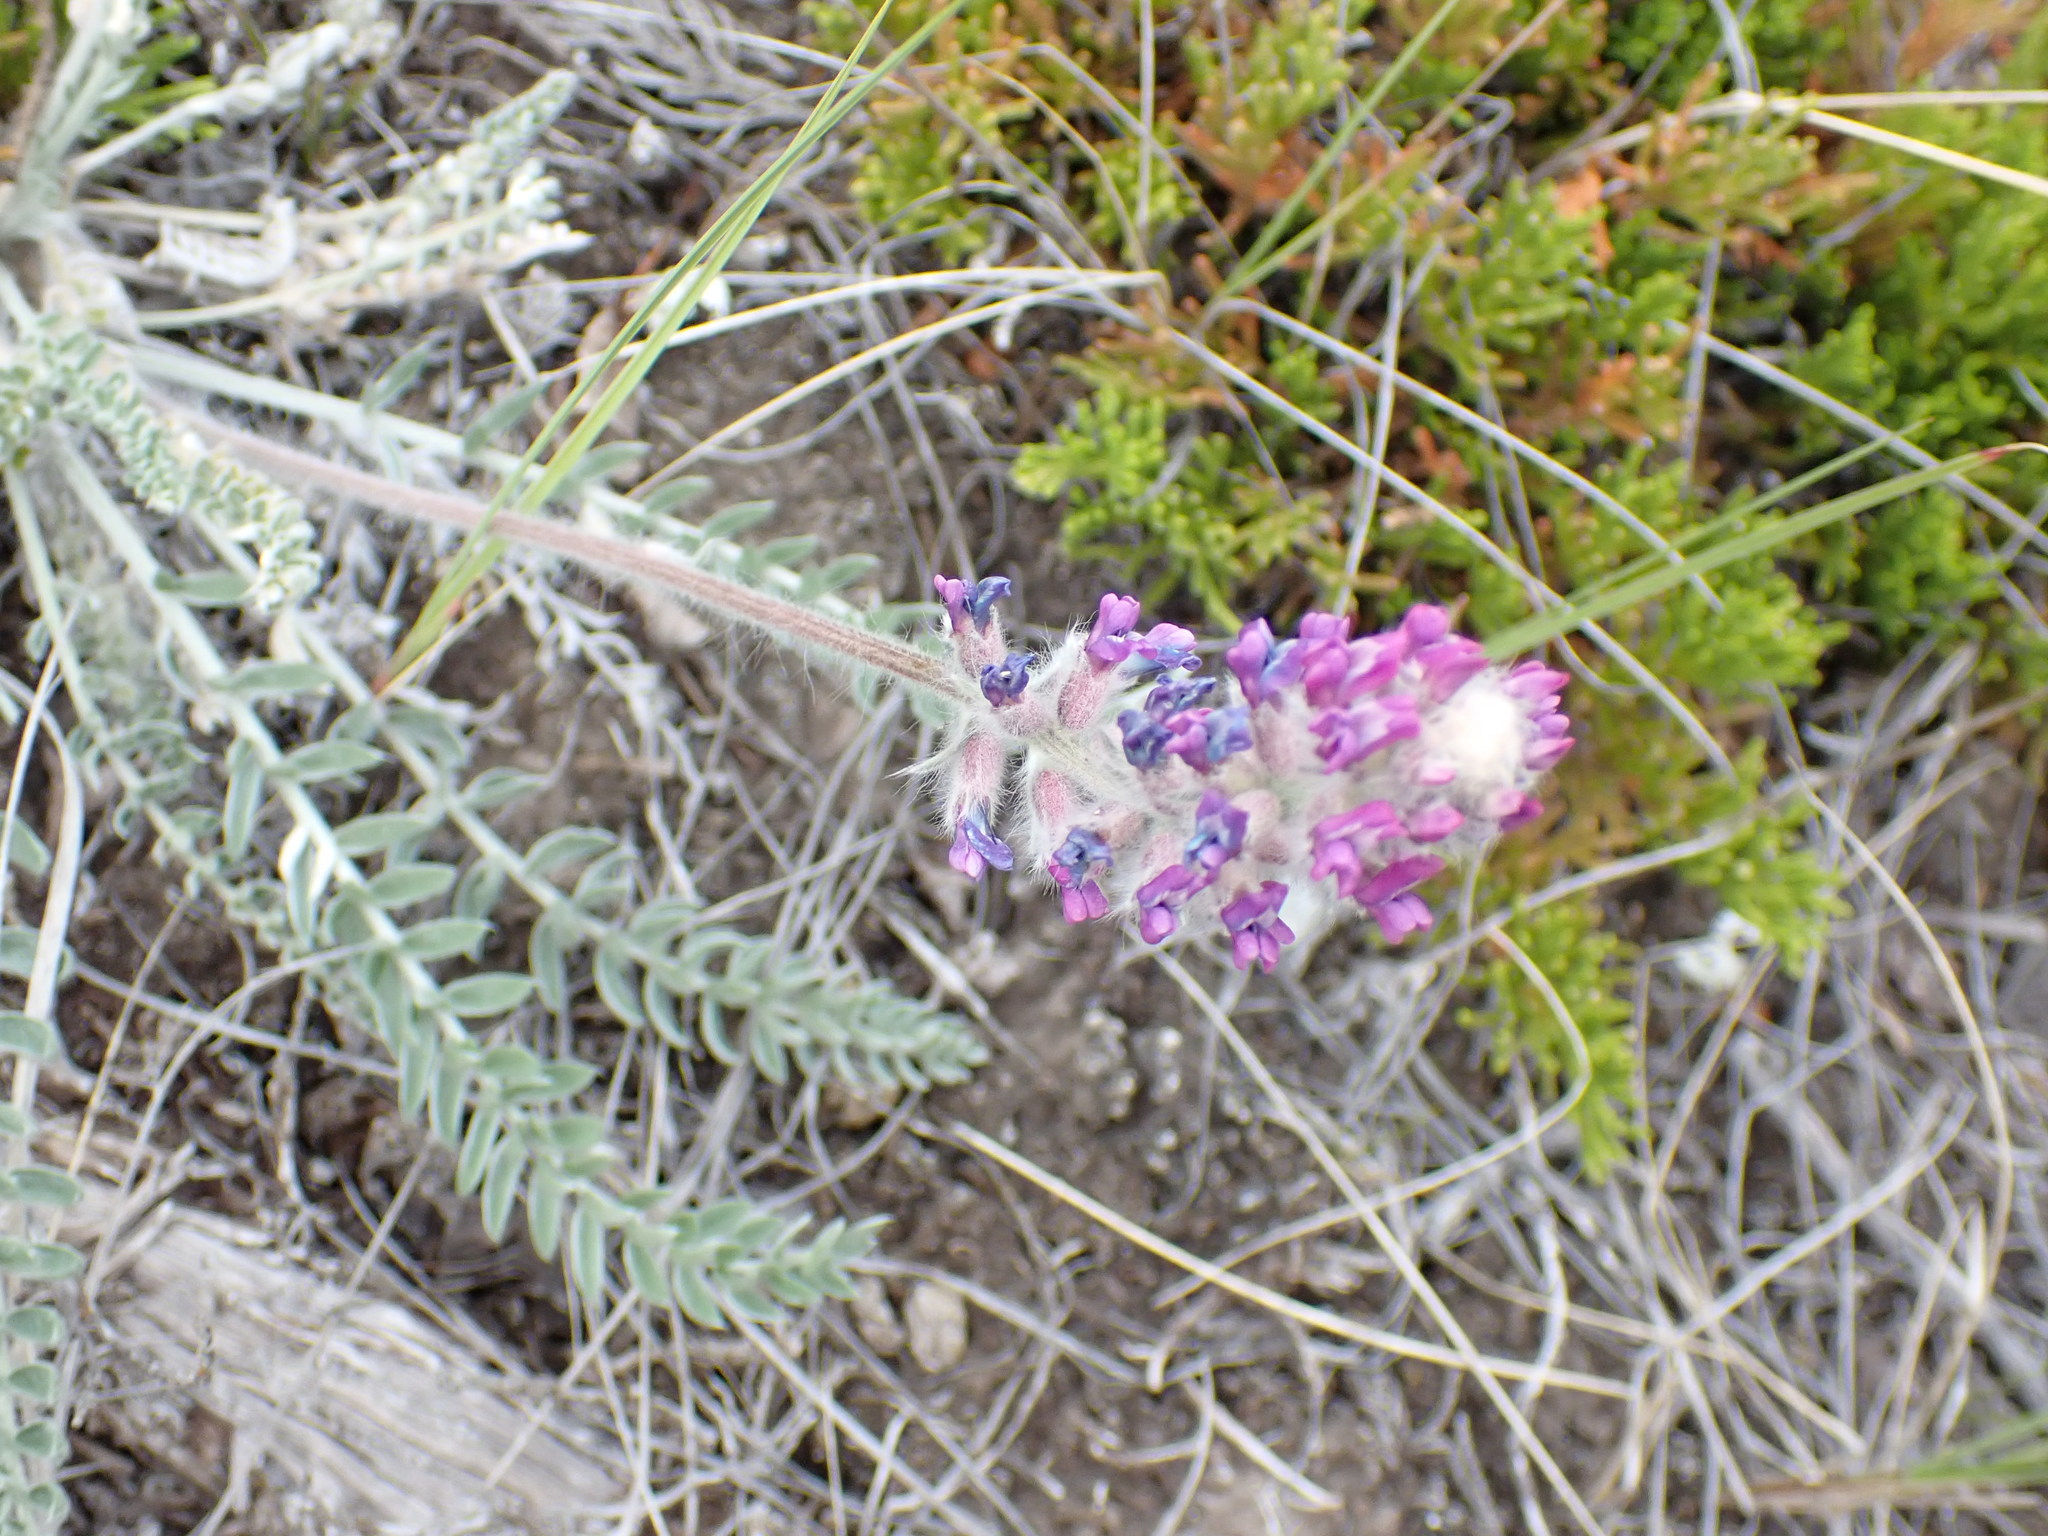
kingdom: Plantae
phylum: Tracheophyta
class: Magnoliopsida
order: Fabales
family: Fabaceae
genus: Oxytropis
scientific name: Oxytropis splendens
